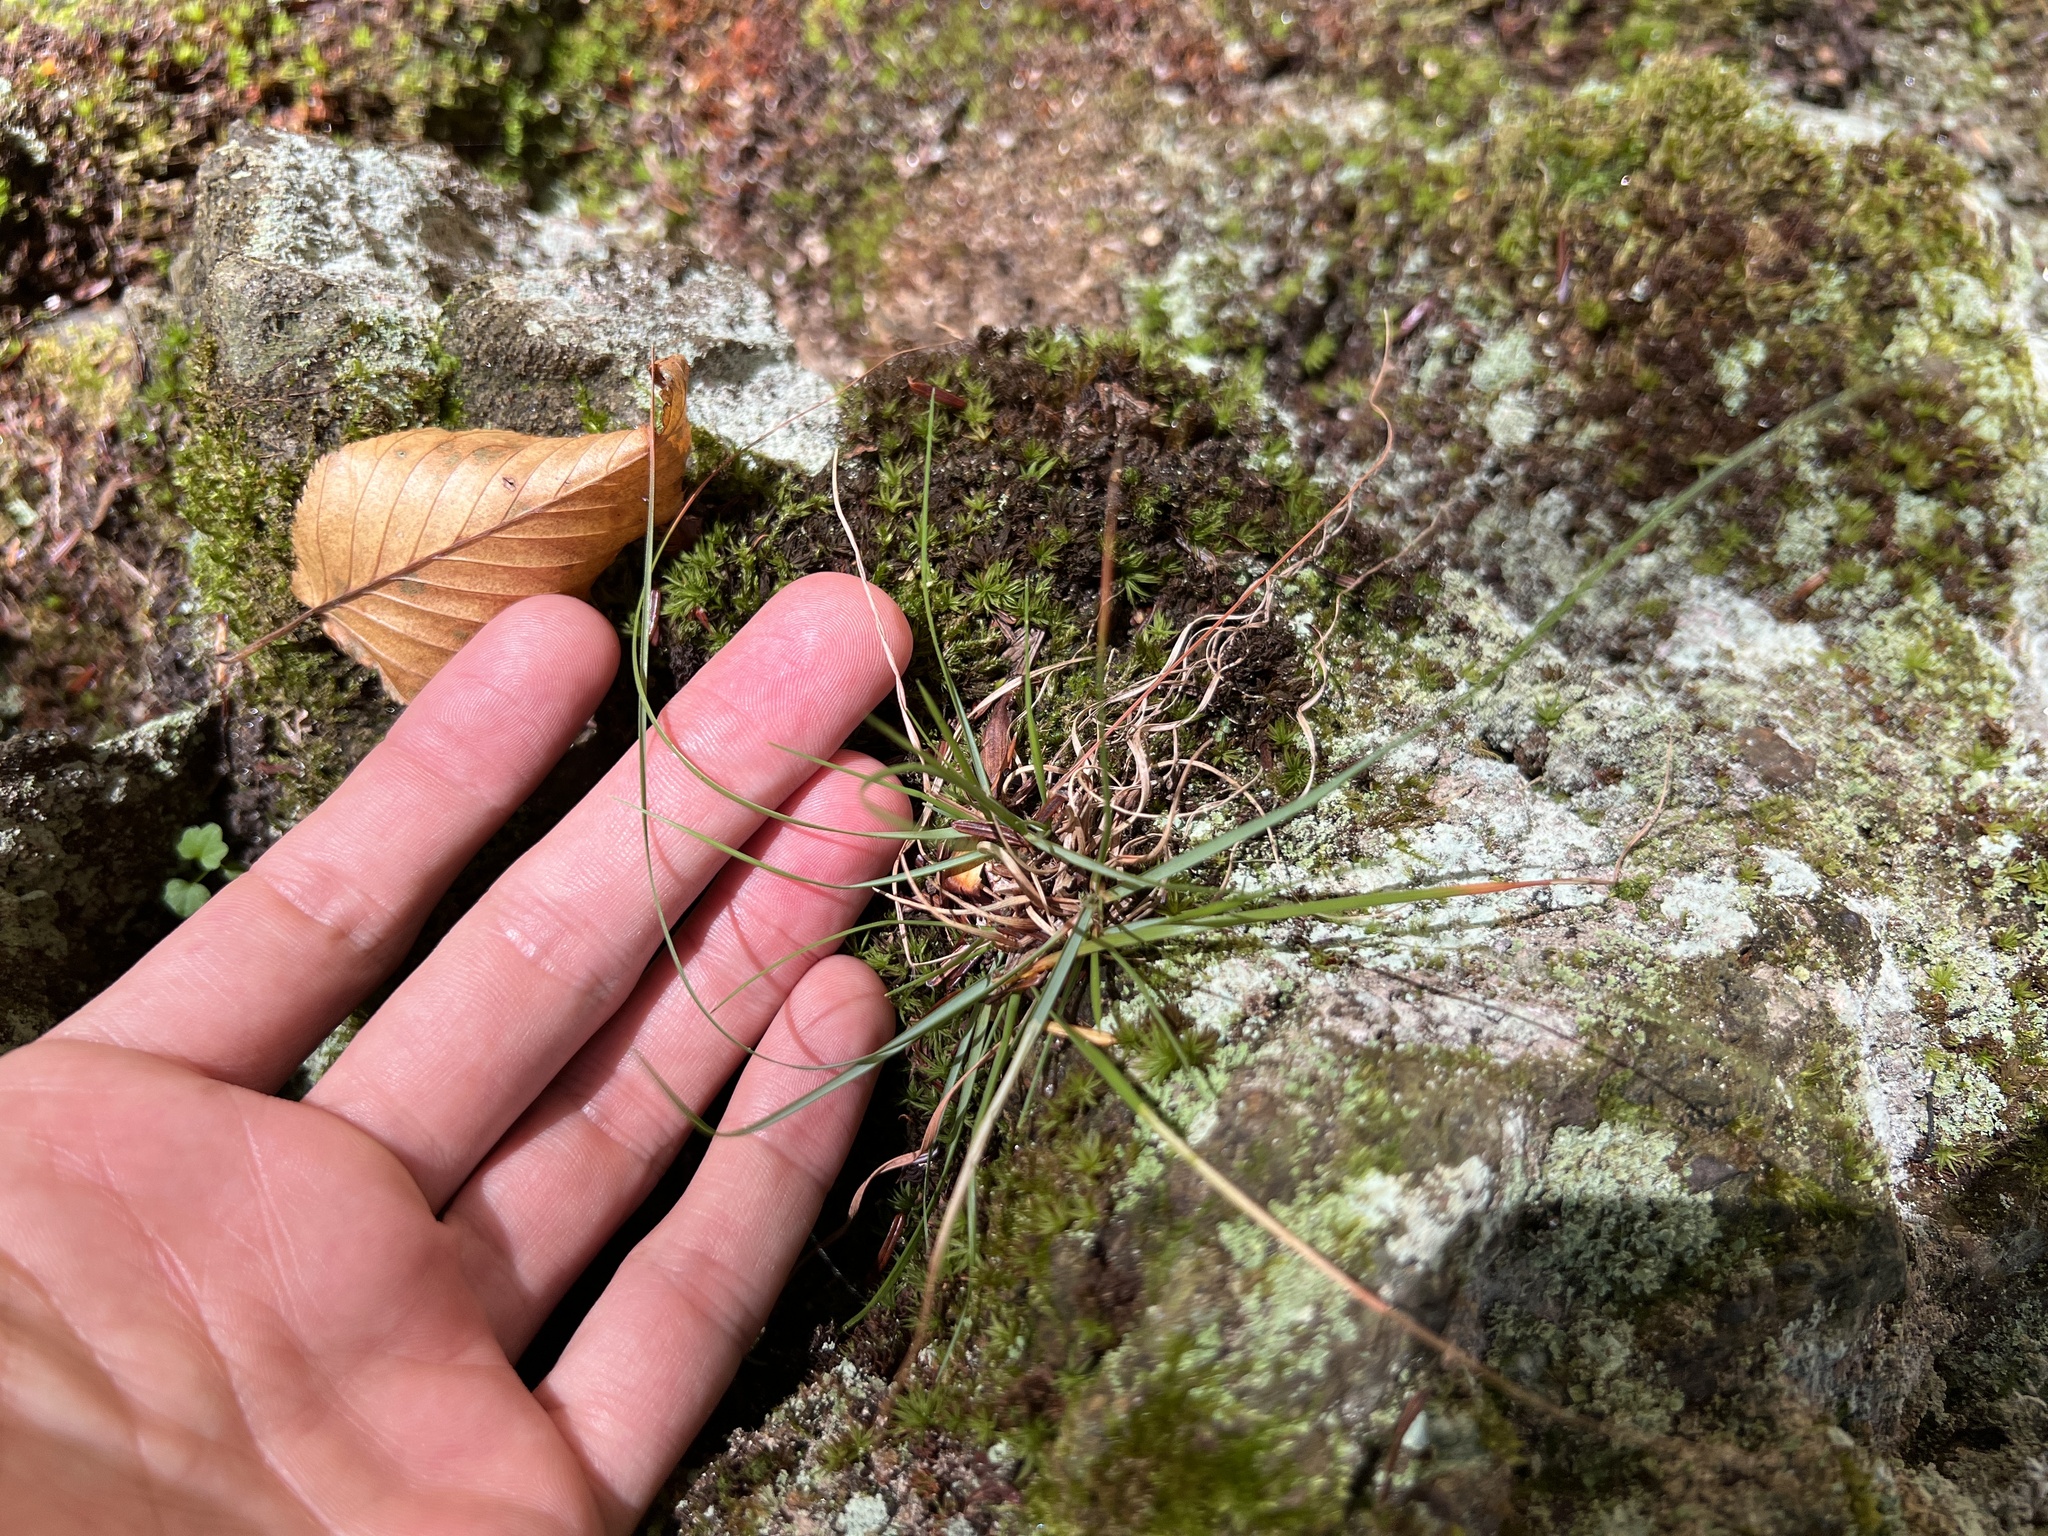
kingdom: Plantae
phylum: Tracheophyta
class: Liliopsida
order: Poales
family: Poaceae
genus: Danthonia
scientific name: Danthonia spicata
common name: Common wild oatgrass
